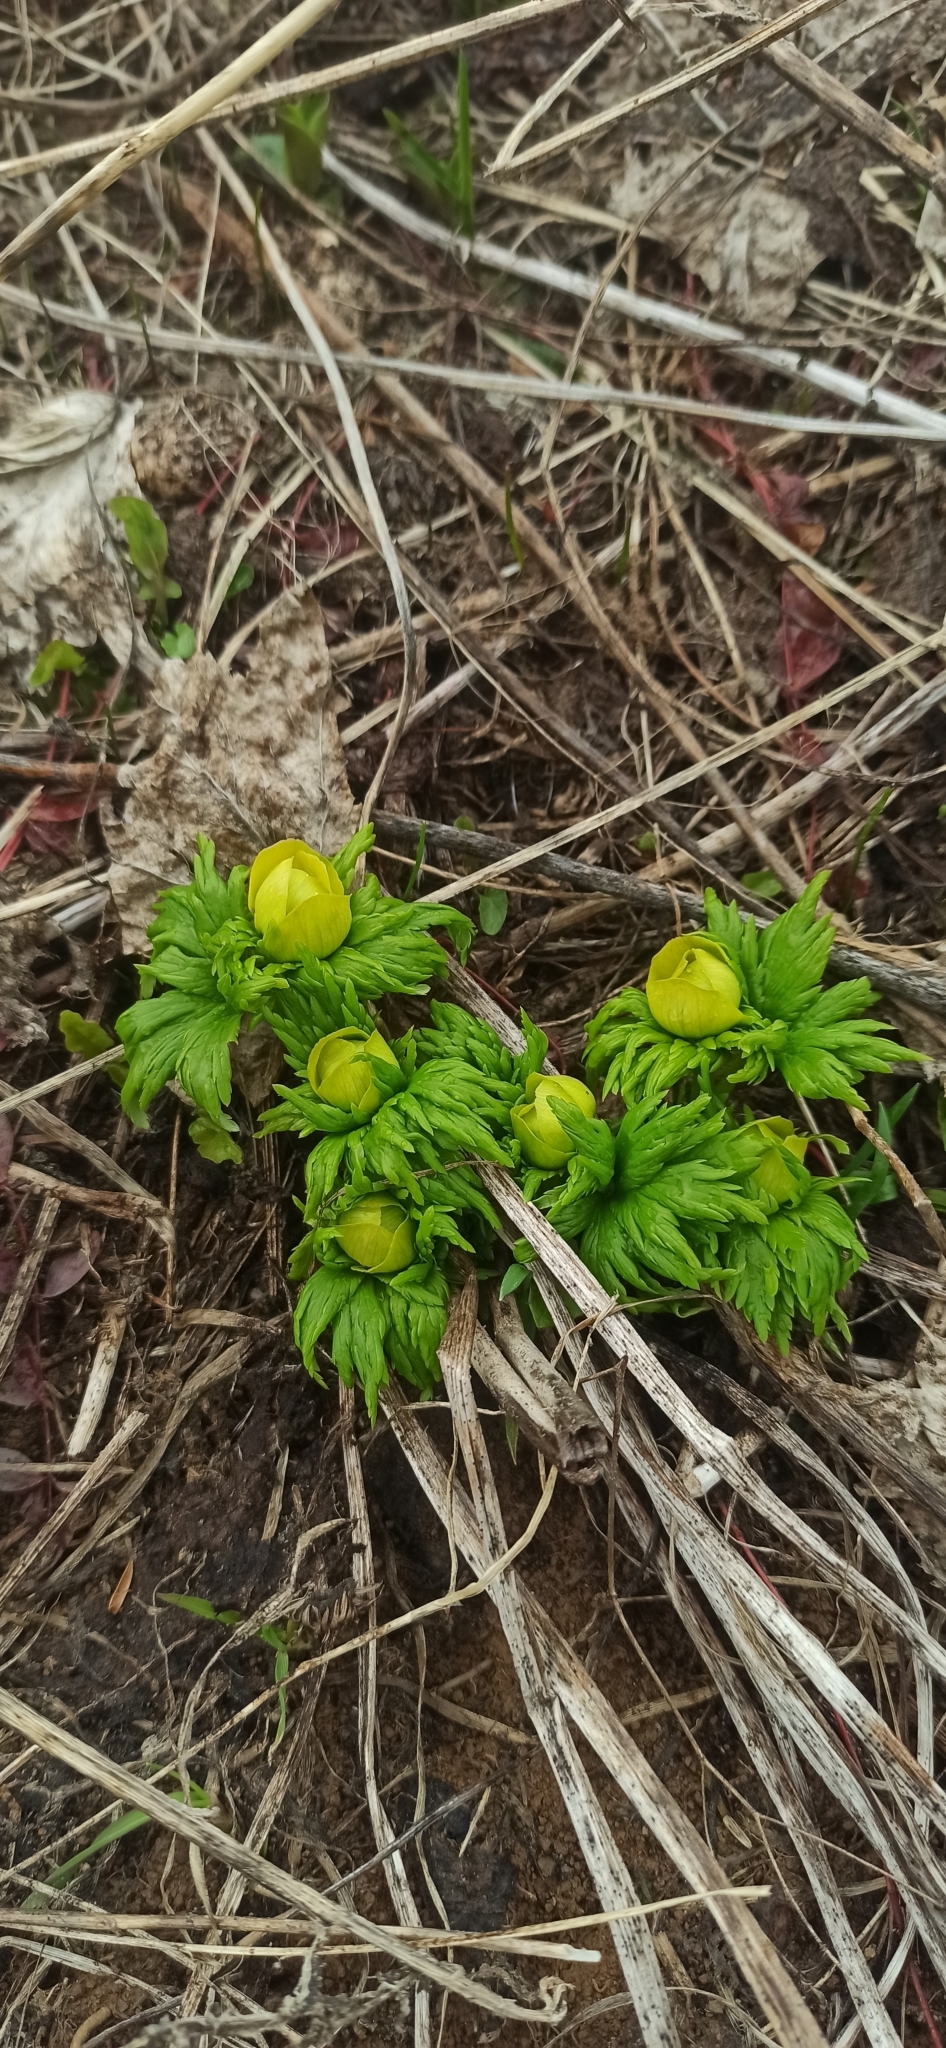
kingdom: Plantae
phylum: Tracheophyta
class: Magnoliopsida
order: Ranunculales
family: Ranunculaceae
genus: Trollius
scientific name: Trollius ranunculinus
